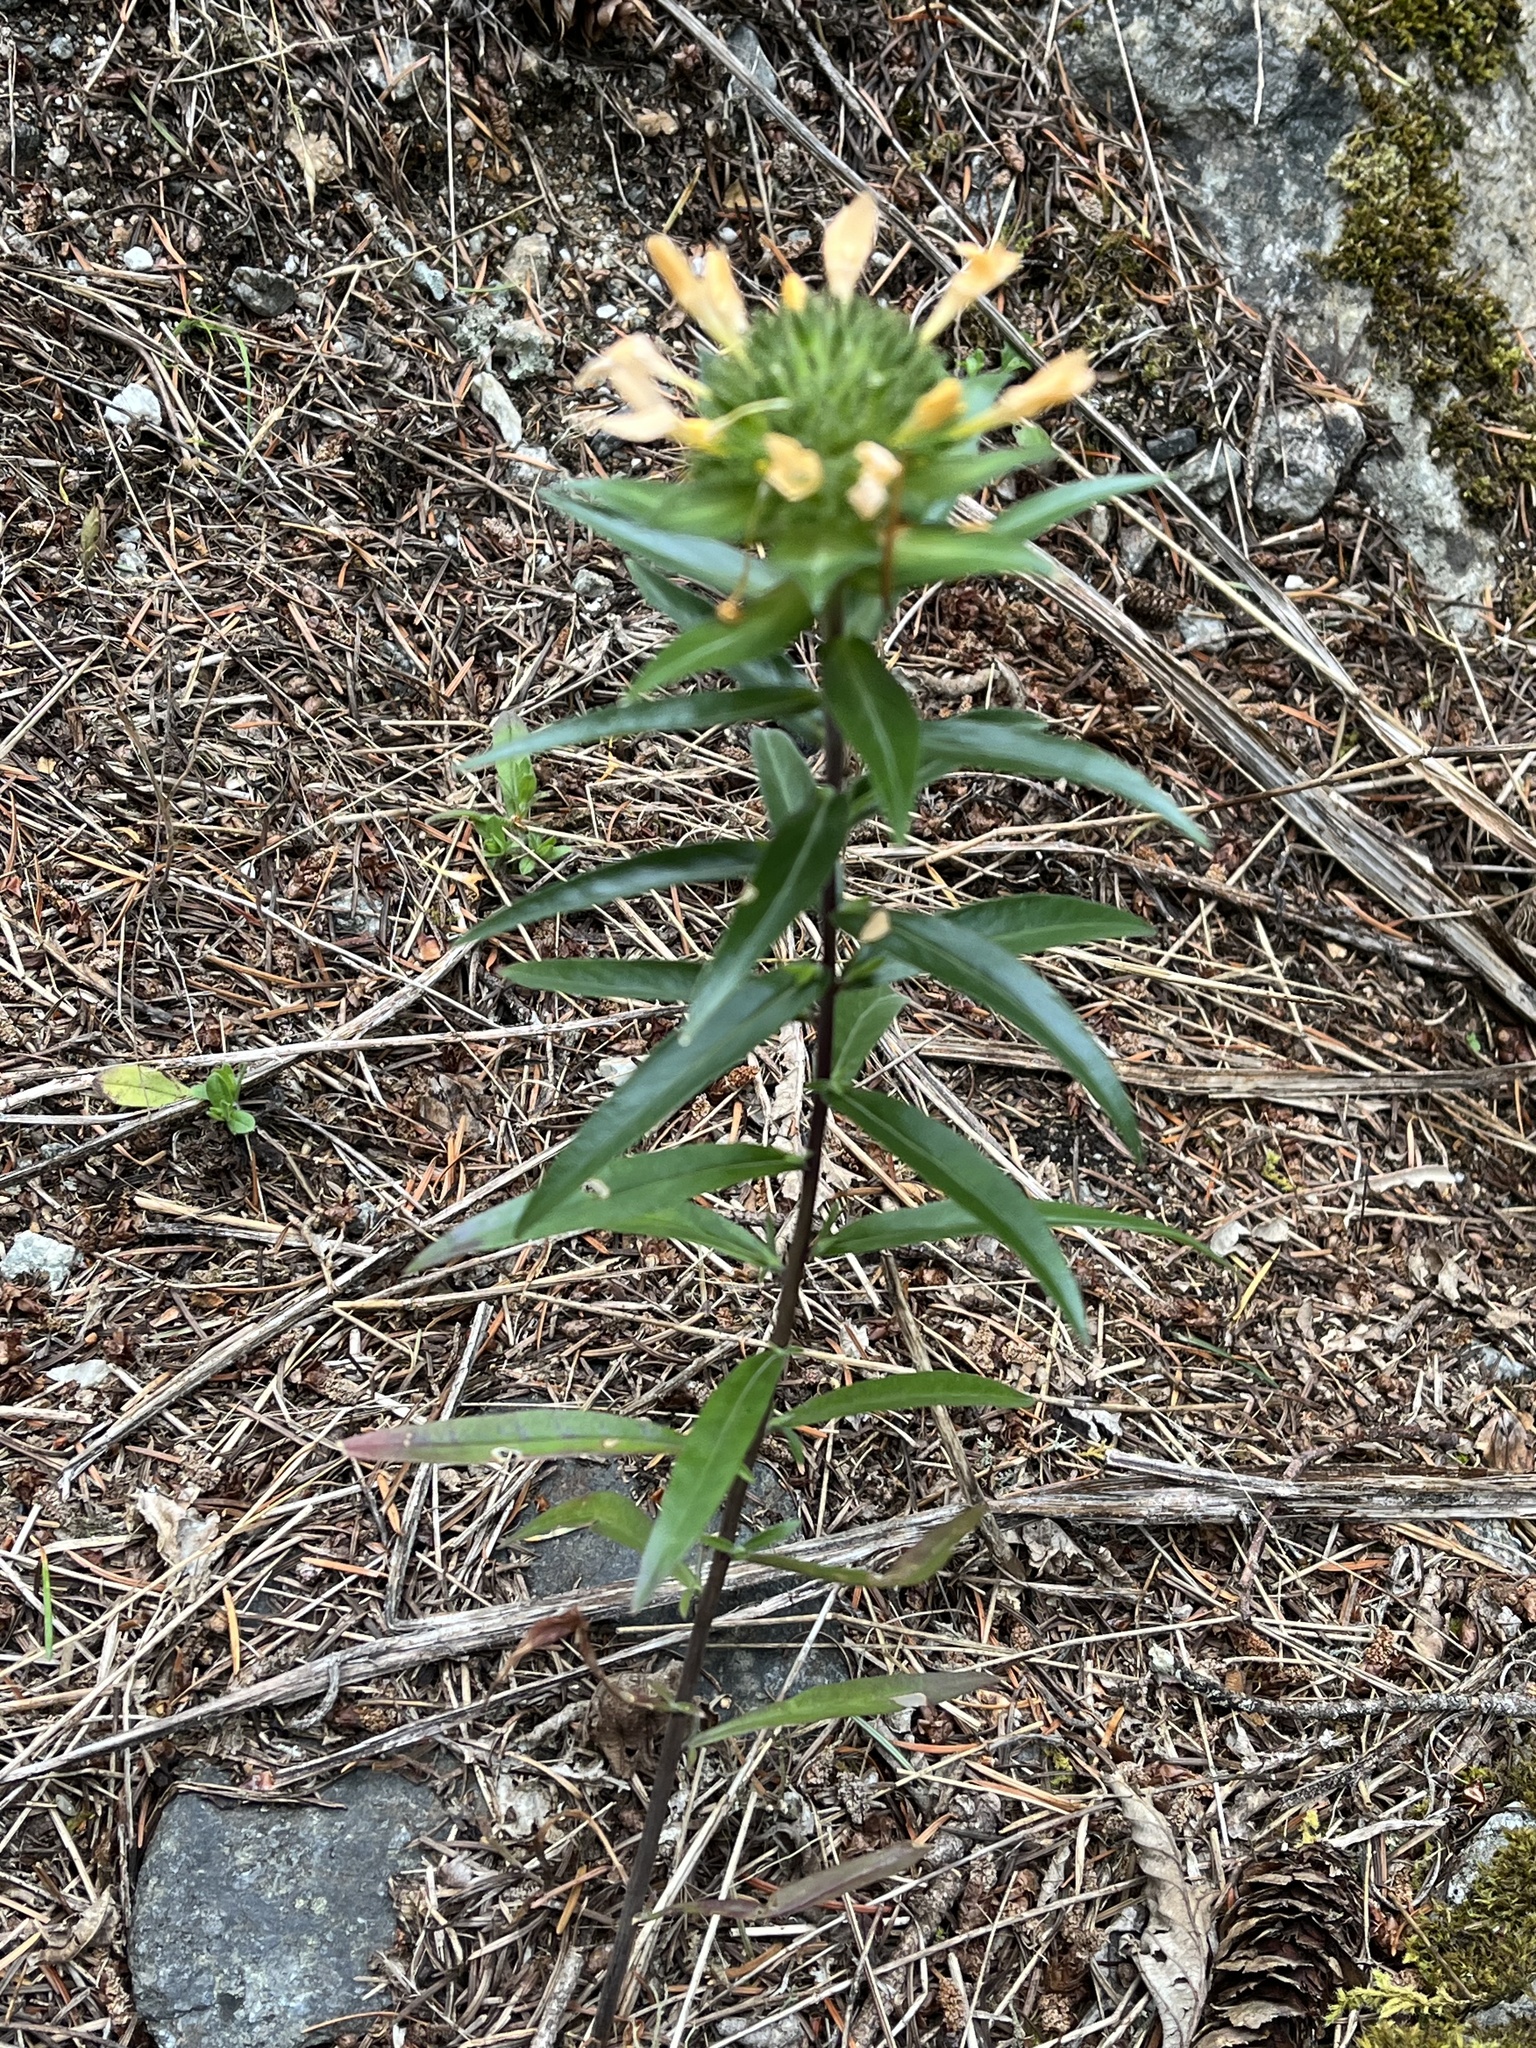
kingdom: Plantae
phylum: Tracheophyta
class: Magnoliopsida
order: Ericales
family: Polemoniaceae
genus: Collomia
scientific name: Collomia grandiflora
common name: California strawflower
